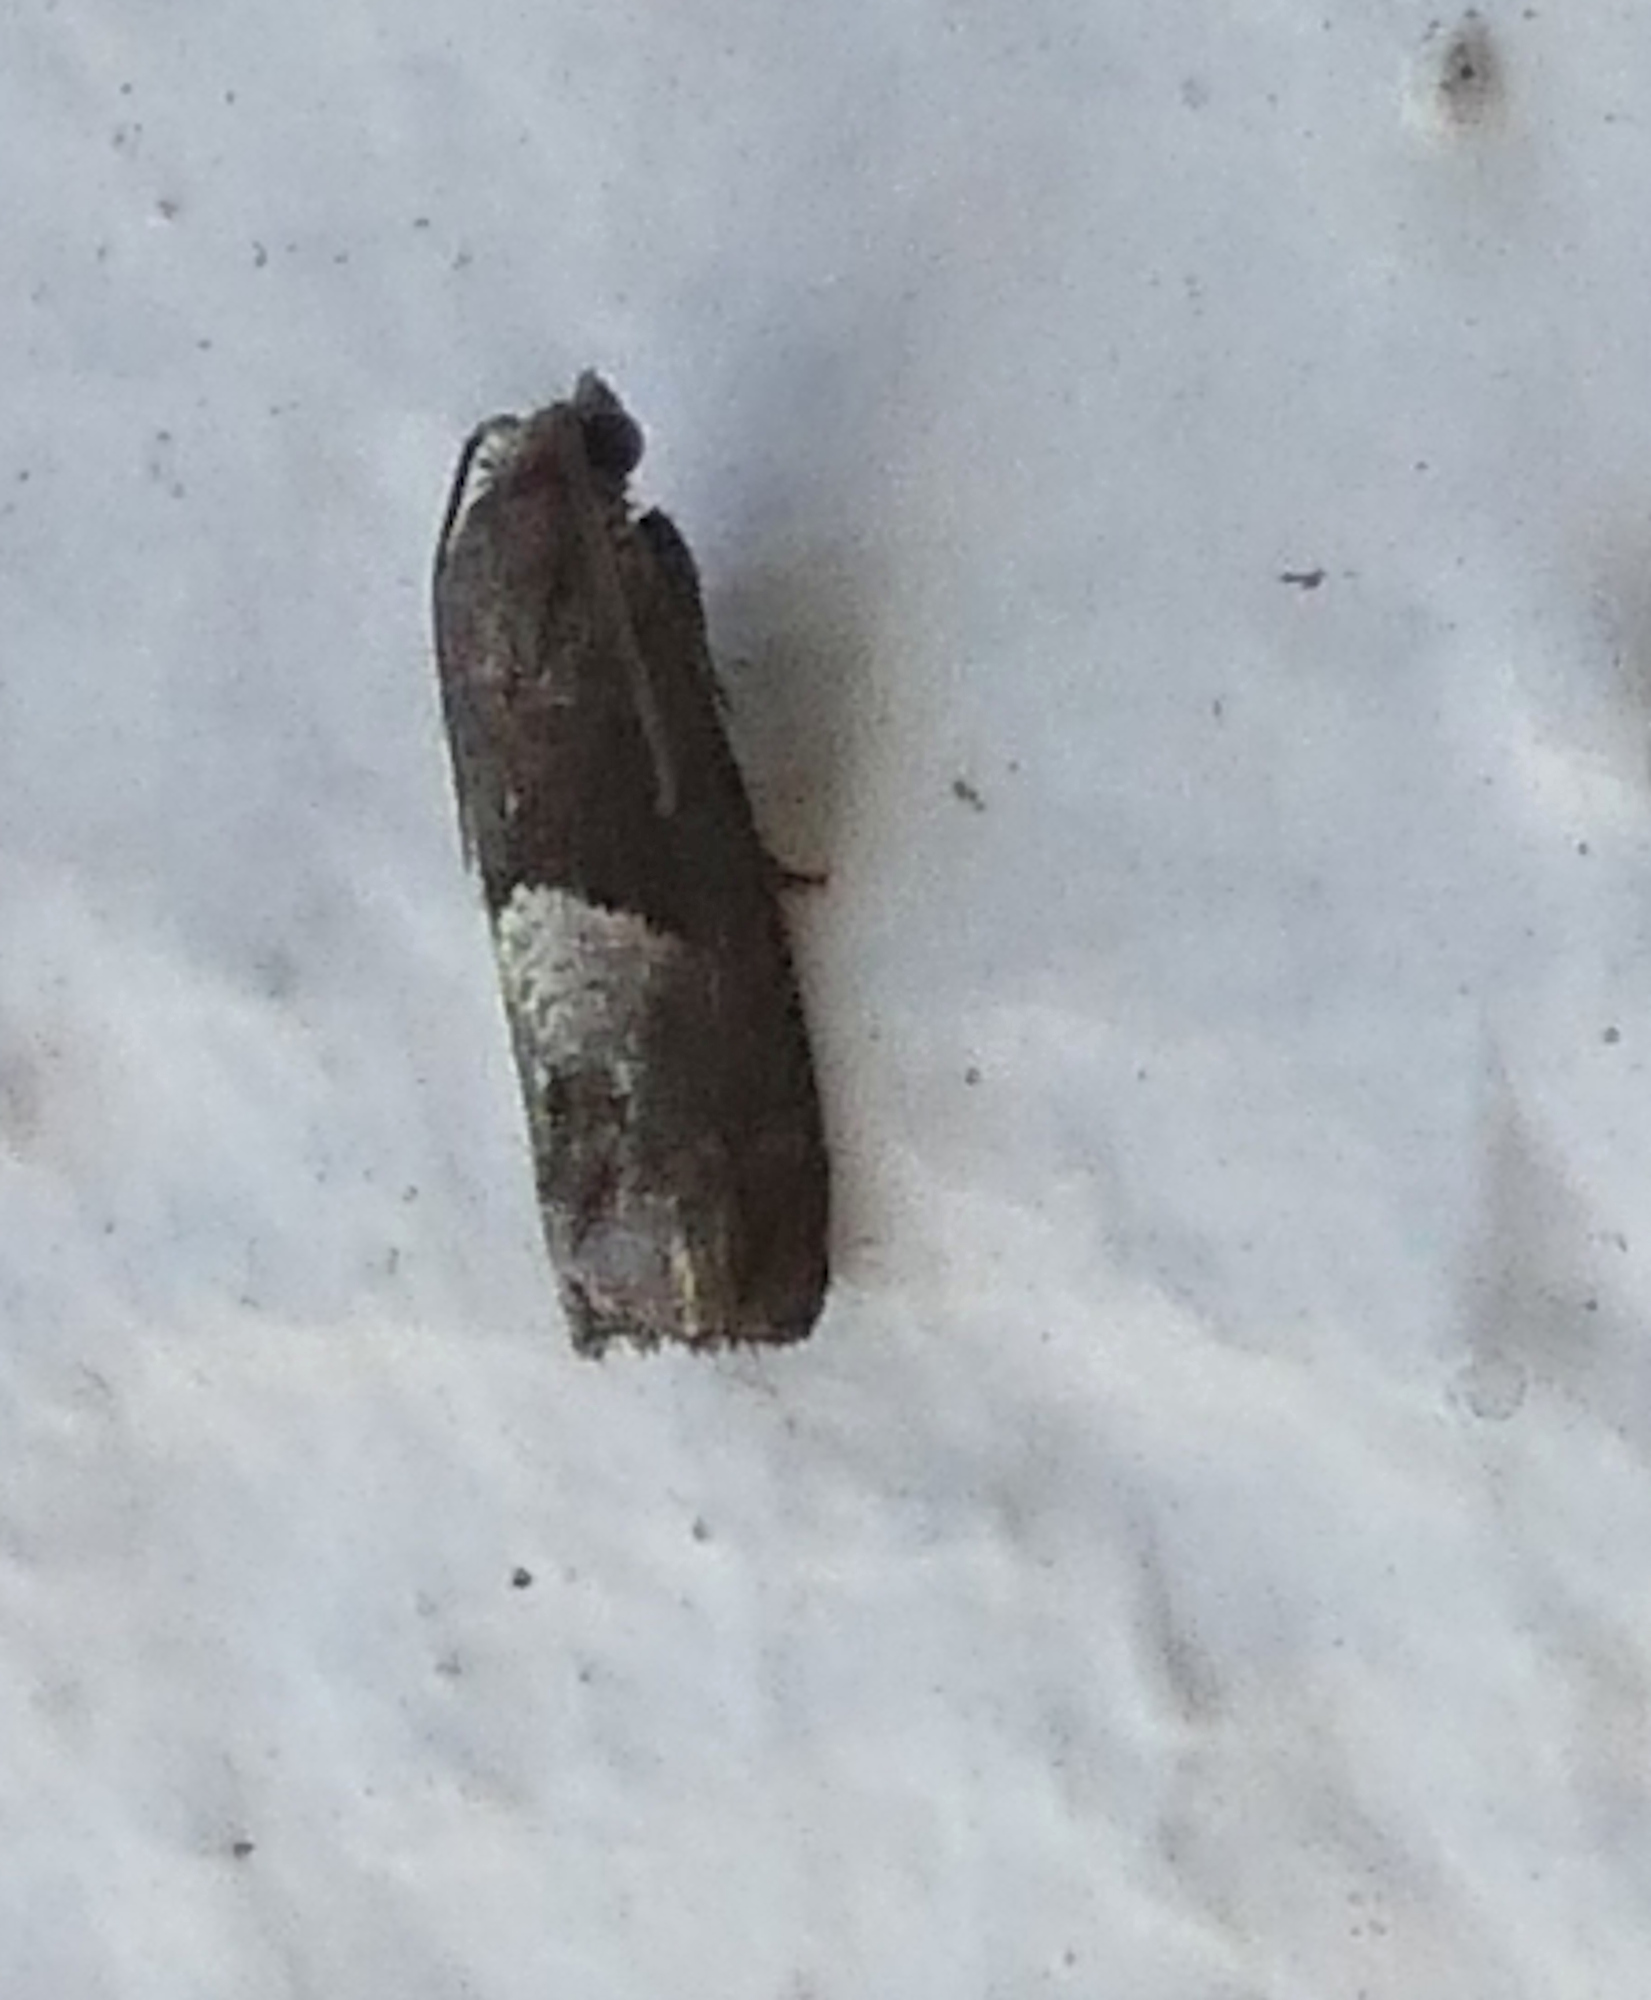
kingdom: Animalia
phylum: Arthropoda
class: Insecta
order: Lepidoptera
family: Tortricidae
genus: Epiblema
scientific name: Epiblema boxcana
